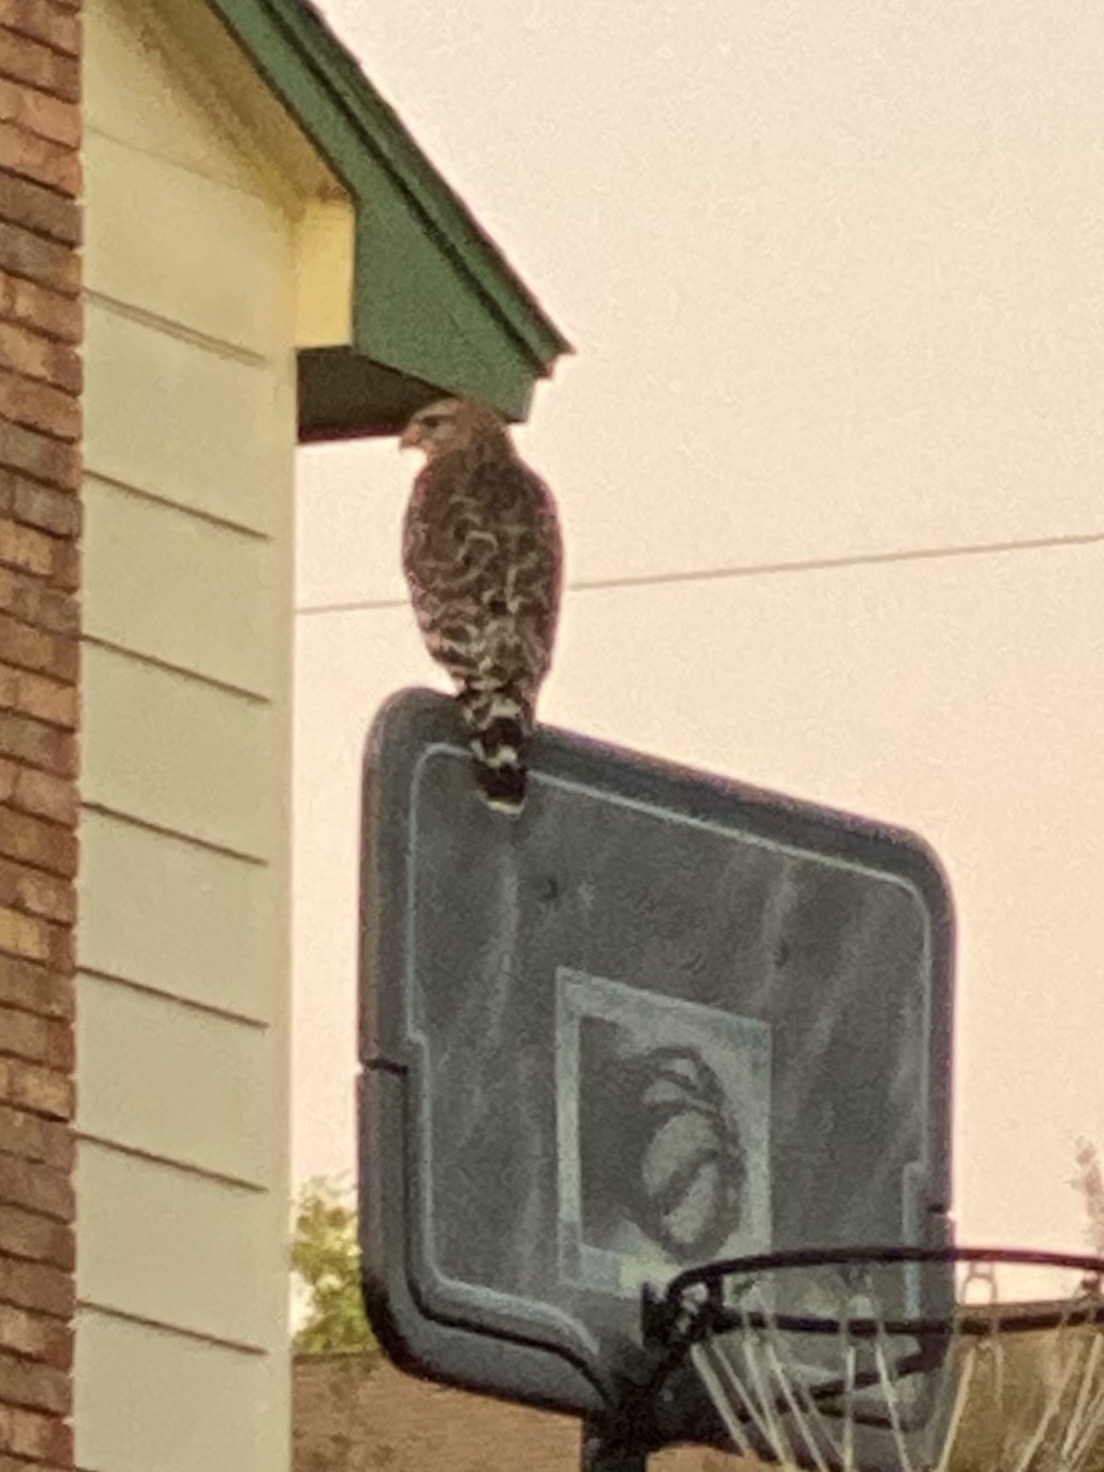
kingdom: Animalia
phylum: Chordata
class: Aves
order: Accipitriformes
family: Accipitridae
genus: Buteo
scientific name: Buteo lineatus
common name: Red-shouldered hawk
